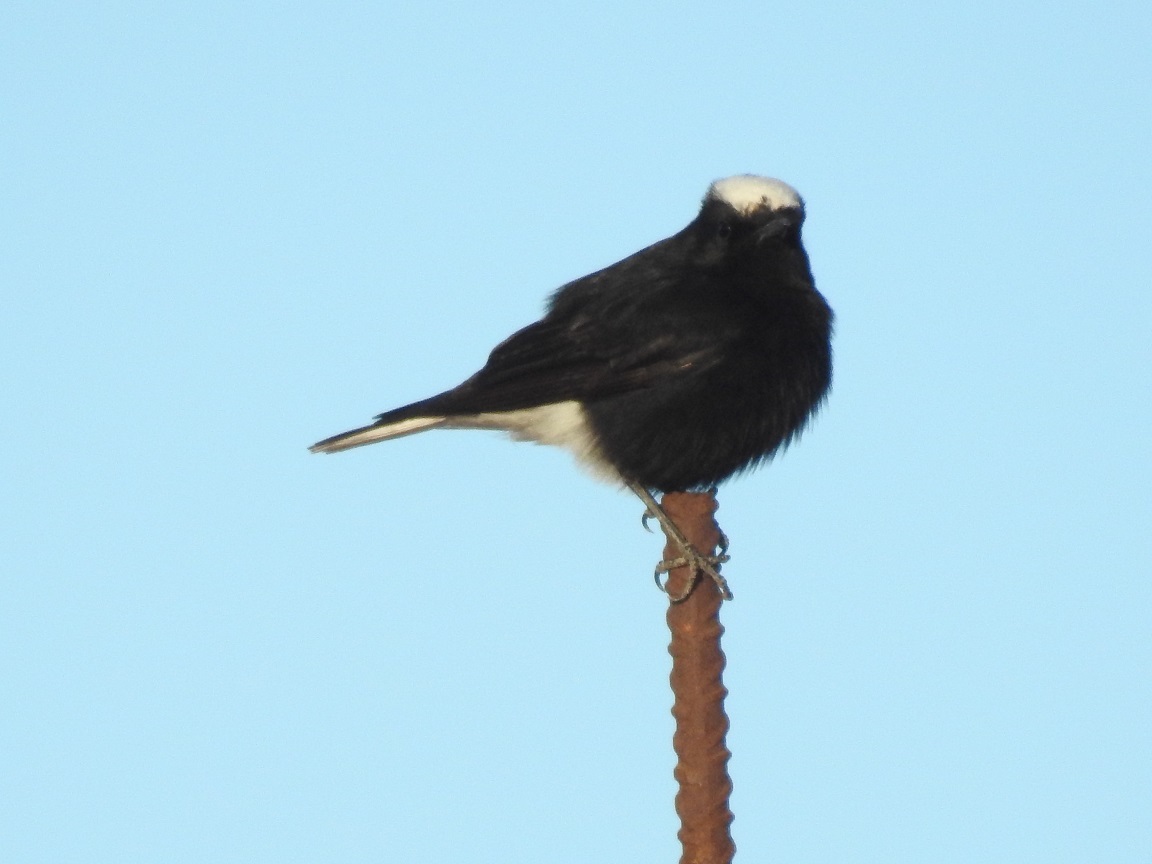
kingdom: Animalia
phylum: Chordata
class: Aves
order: Passeriformes
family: Muscicapidae
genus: Oenanthe
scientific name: Oenanthe leucopyga
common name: White-crowned wheatear
